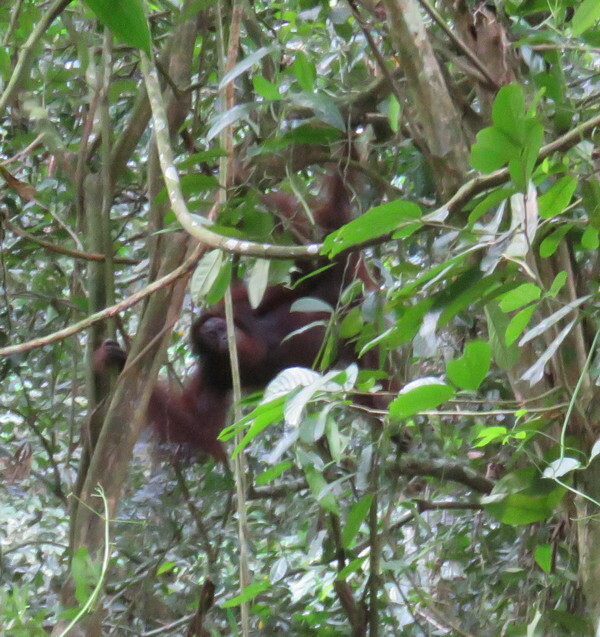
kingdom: Animalia
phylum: Chordata
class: Mammalia
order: Primates
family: Hominidae
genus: Pongo
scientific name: Pongo pygmaeus
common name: Bornean orangutan
